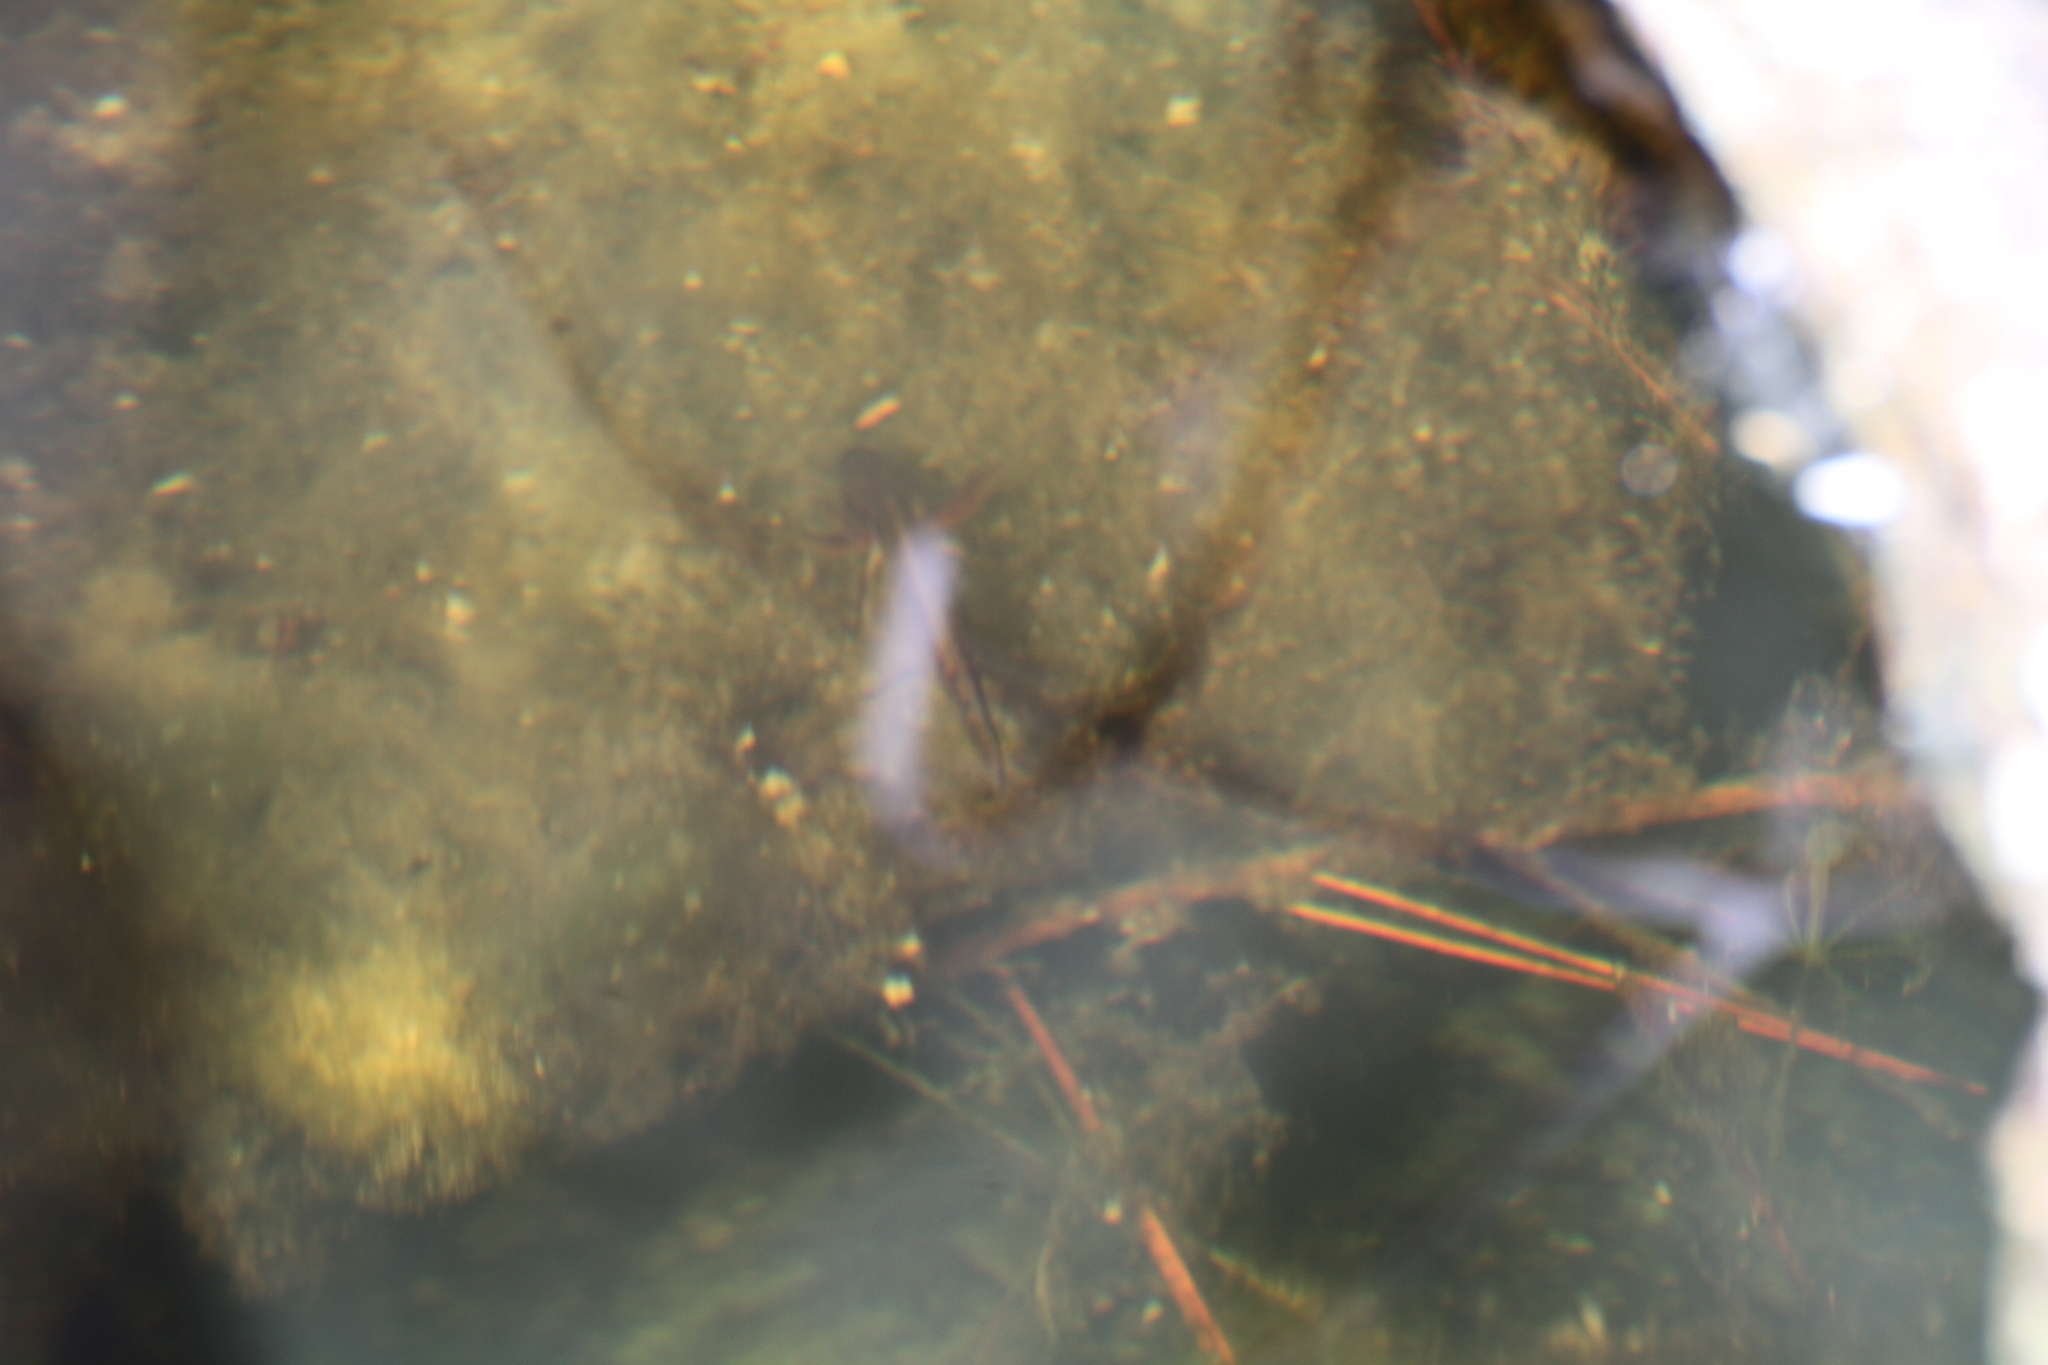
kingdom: Animalia
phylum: Chordata
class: Amphibia
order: Caudata
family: Salamandridae
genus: Triturus
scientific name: Triturus marmoratus
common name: Marbled newt
